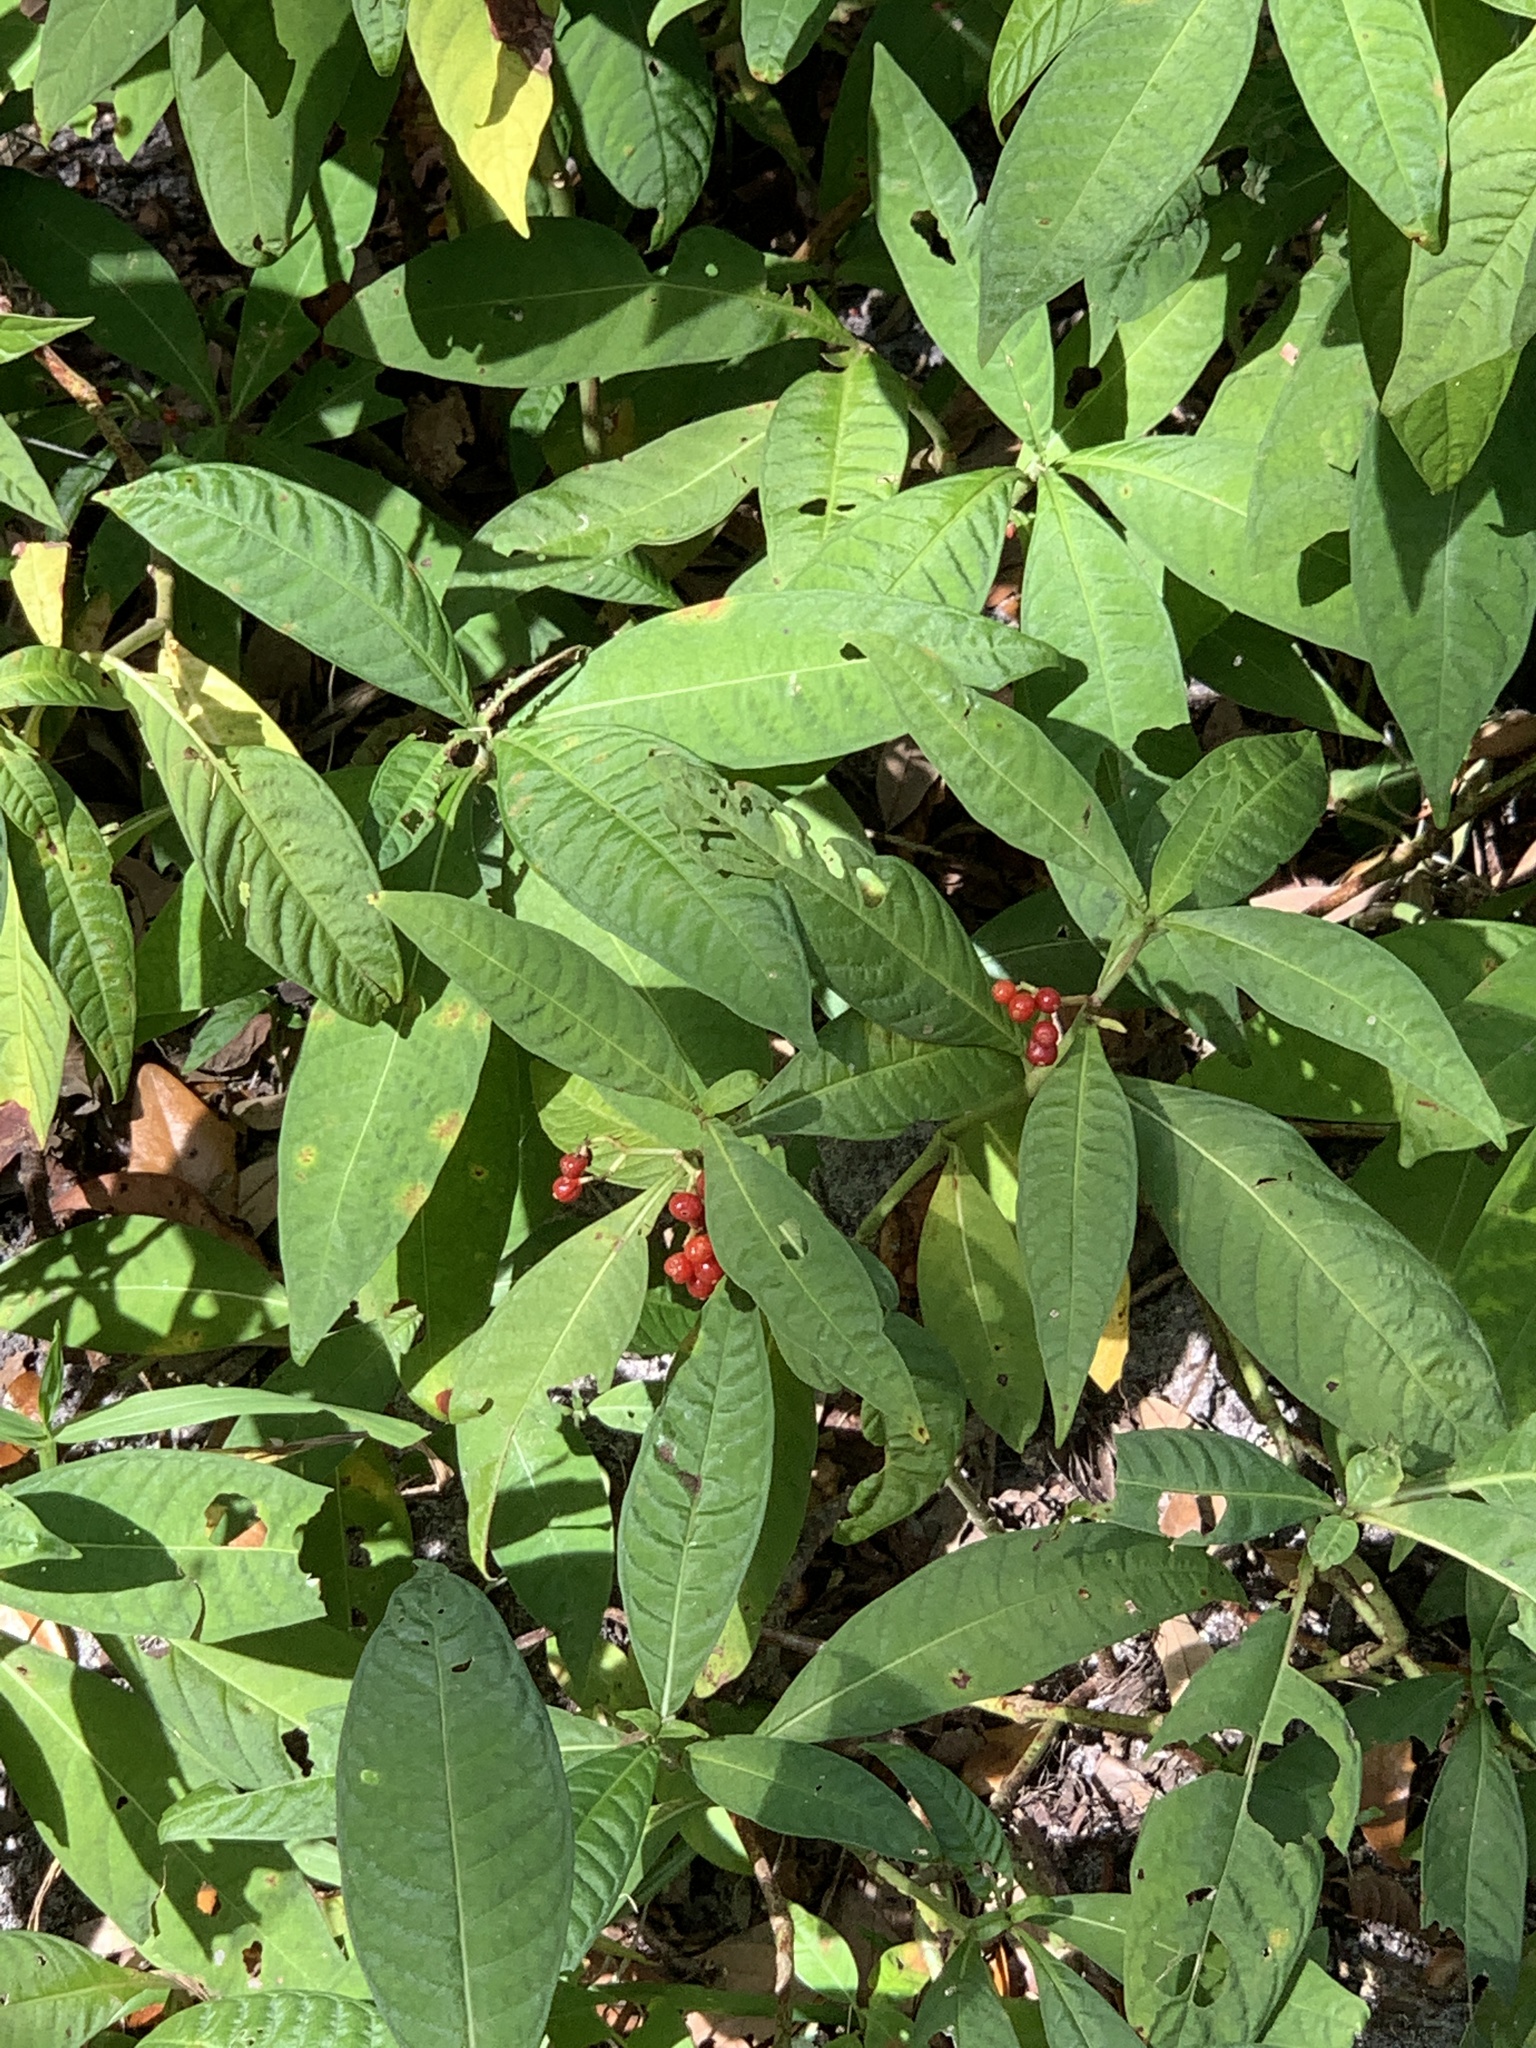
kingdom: Plantae
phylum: Tracheophyta
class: Magnoliopsida
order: Gentianales
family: Rubiaceae
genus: Psychotria
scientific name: Psychotria tenuifolia
